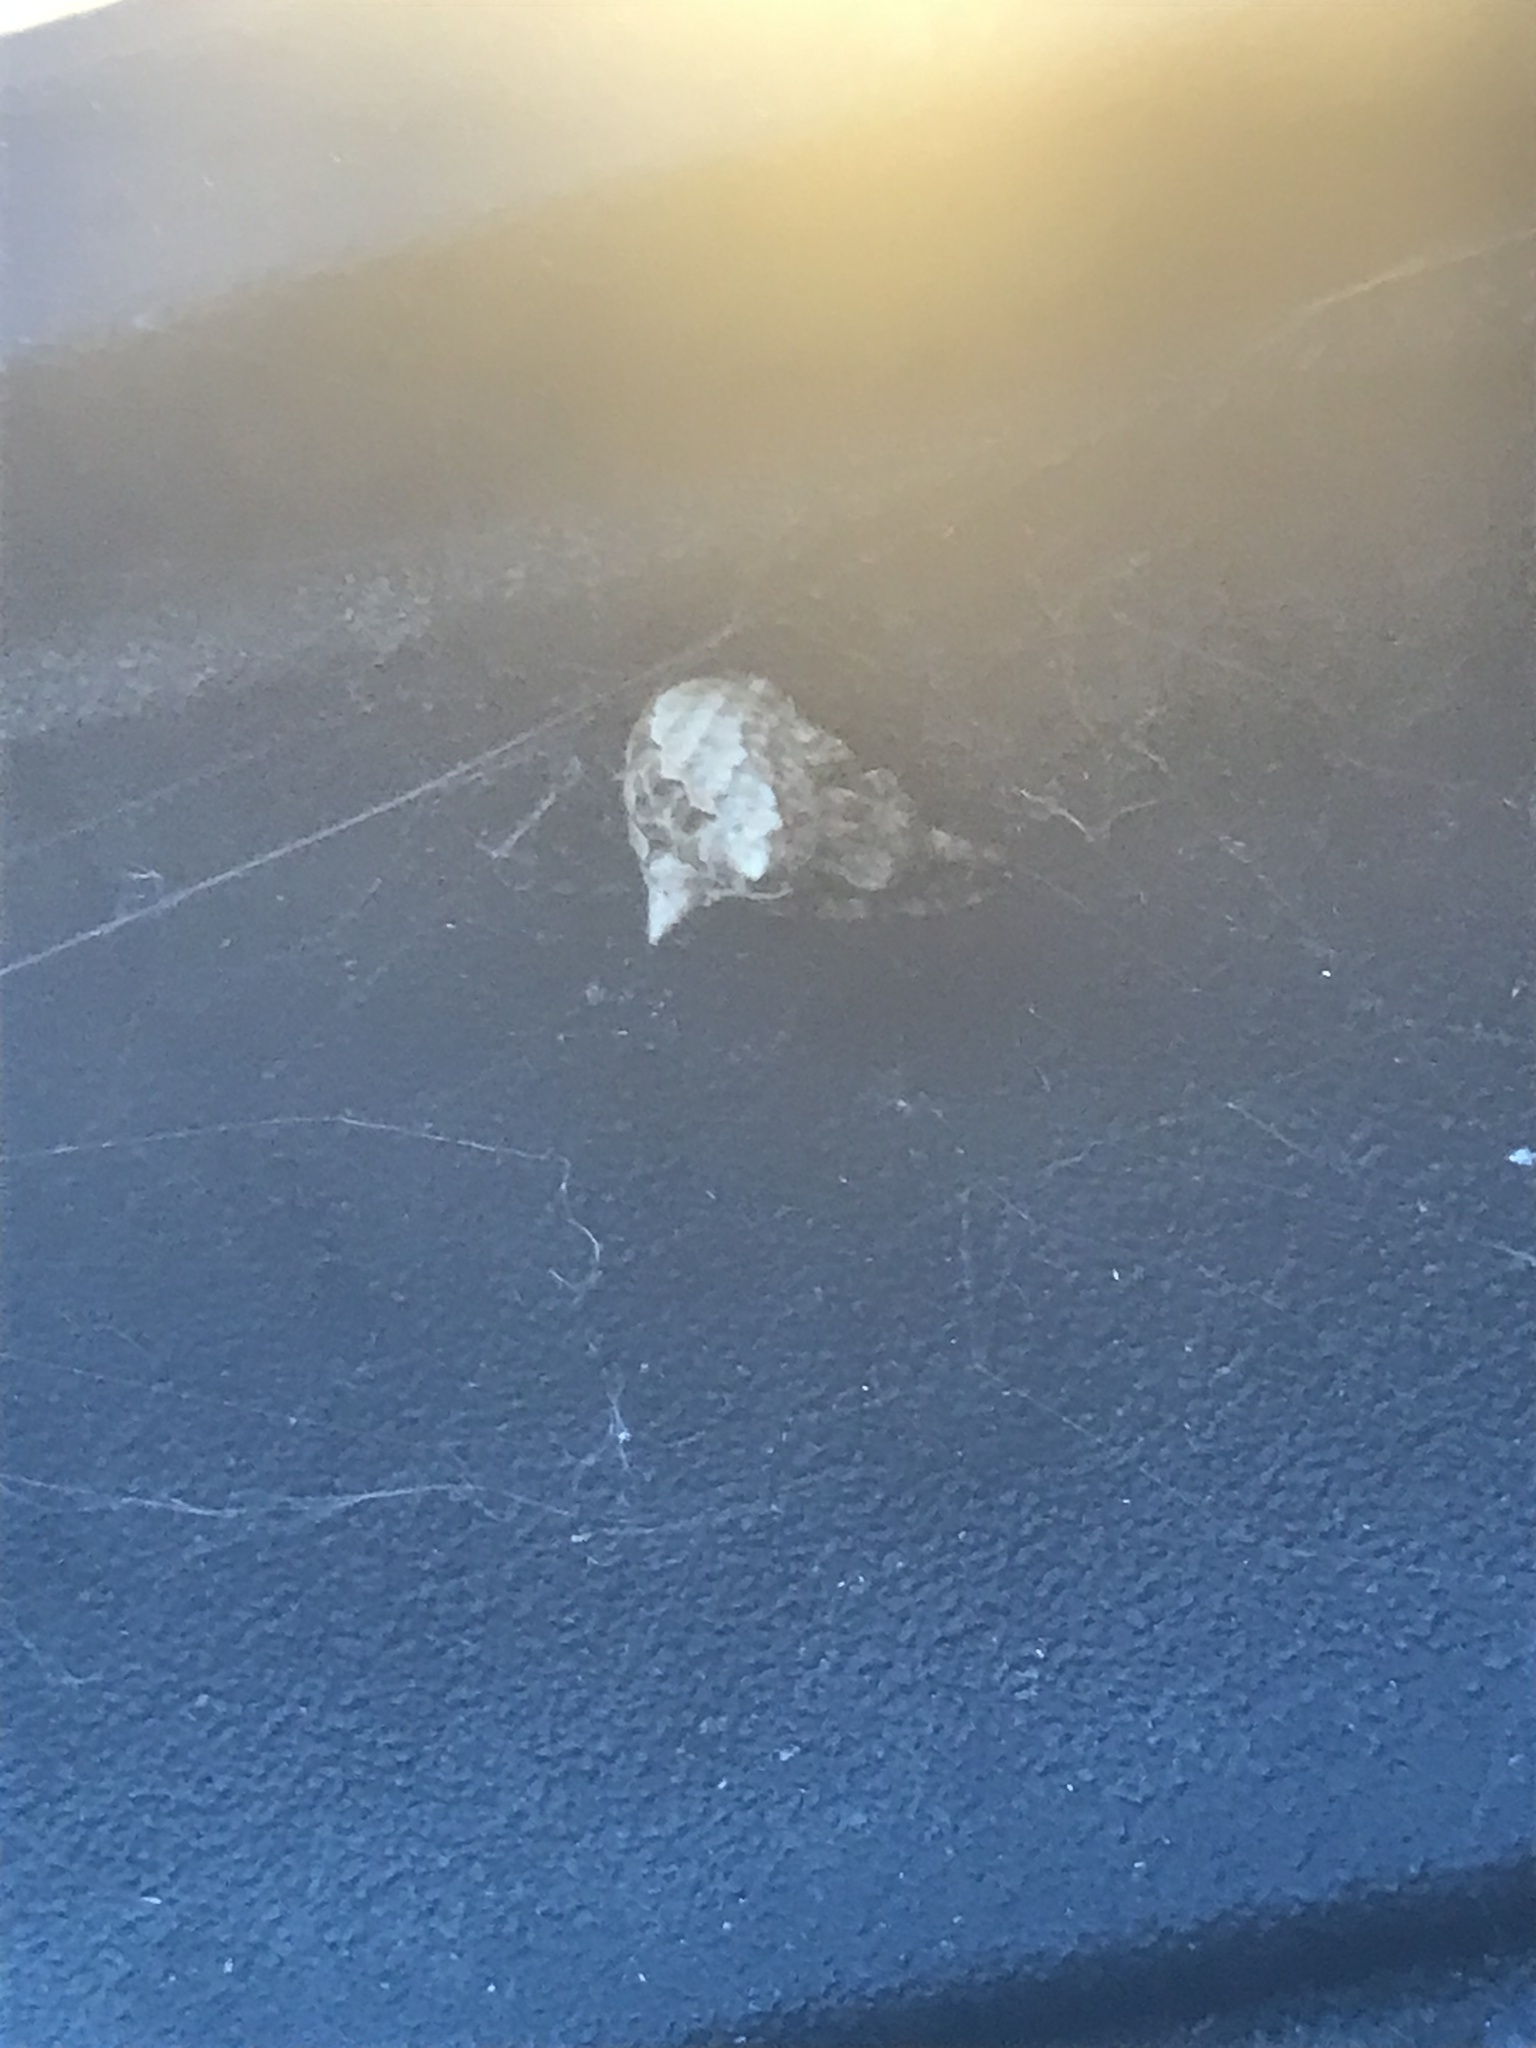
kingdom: Animalia
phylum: Arthropoda
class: Arachnida
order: Araneae
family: Araneidae
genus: Araneus
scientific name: Araneus gemmoides
